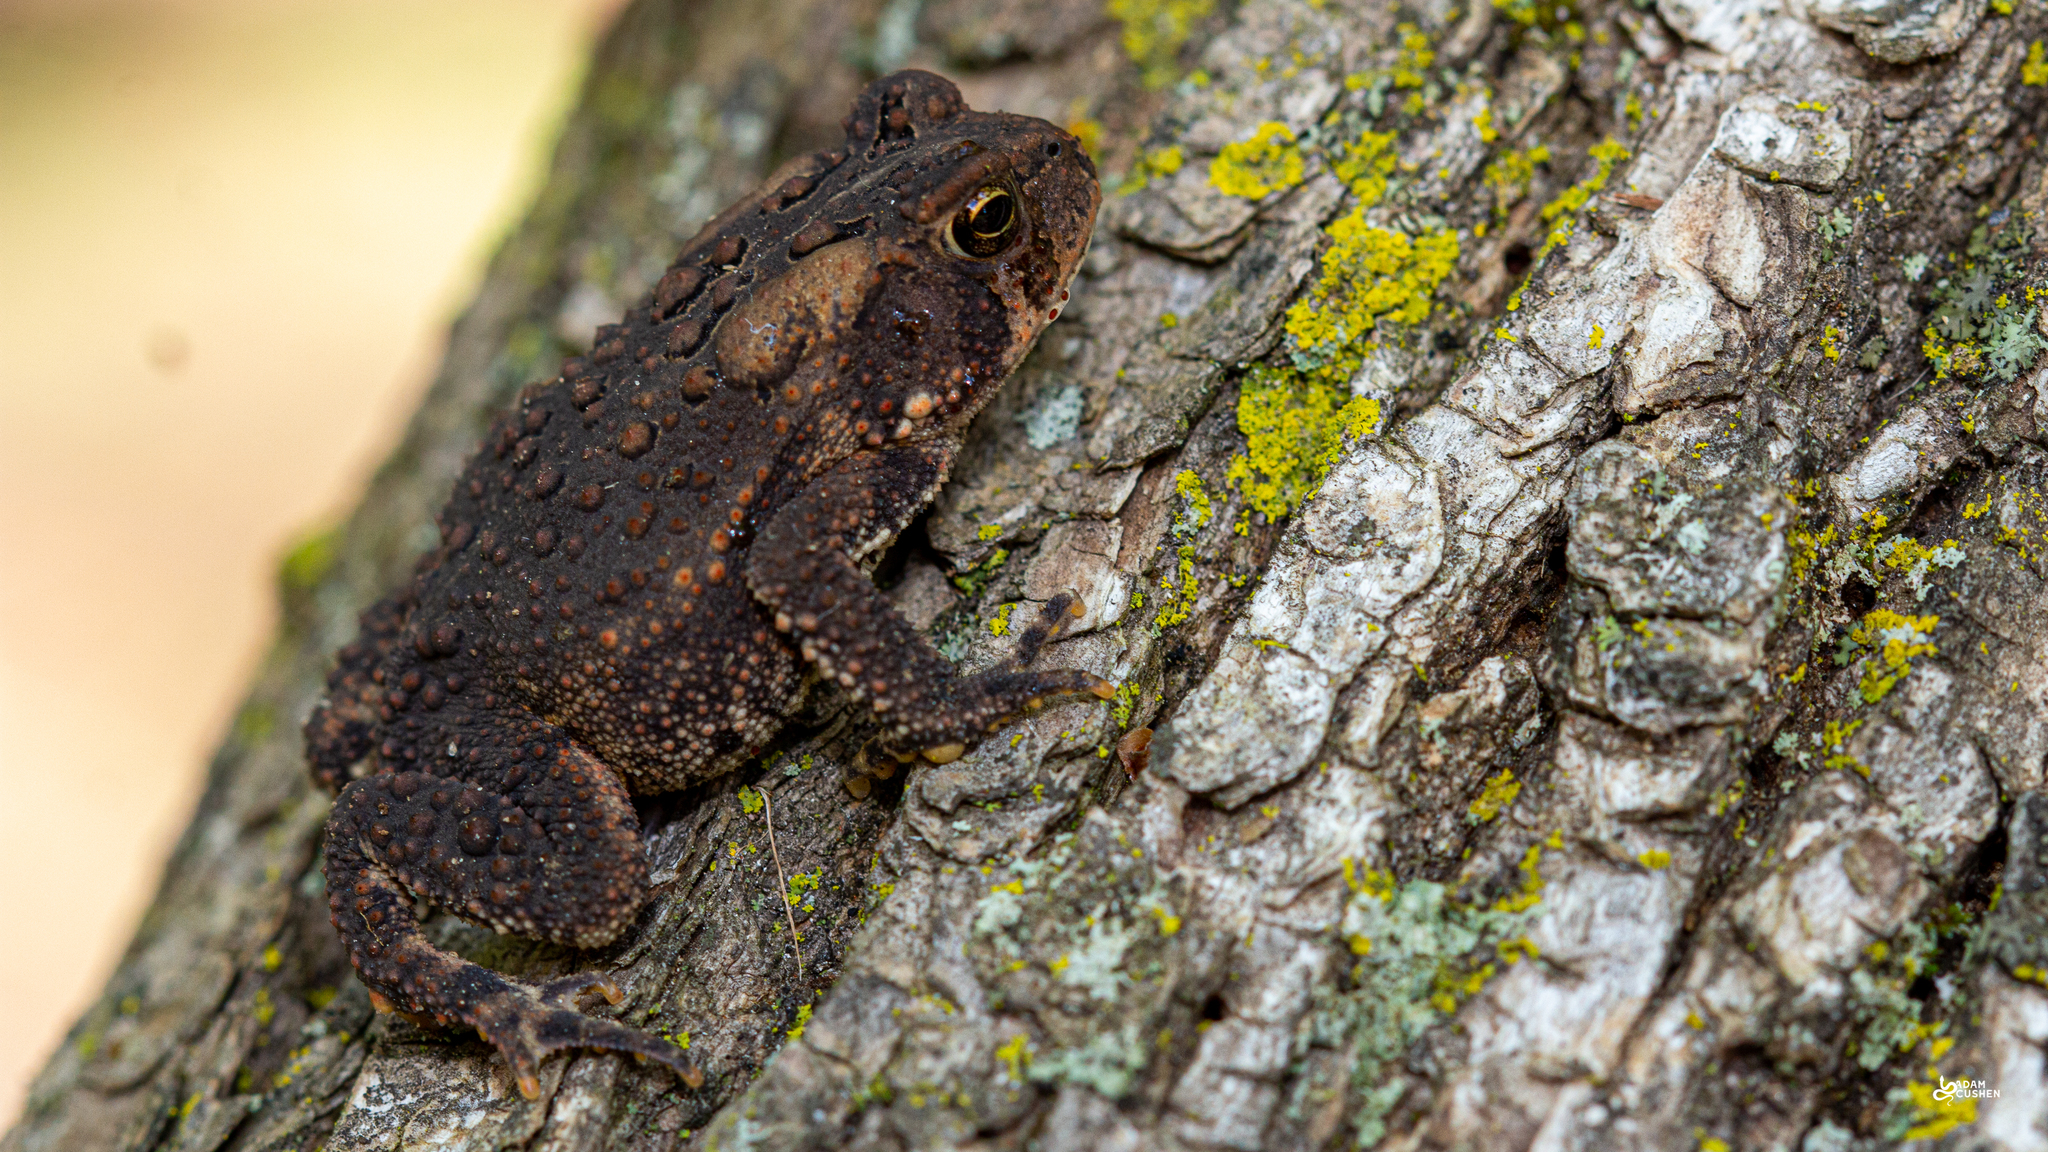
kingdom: Animalia
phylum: Chordata
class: Amphibia
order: Anura
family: Bufonidae
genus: Anaxyrus
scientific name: Anaxyrus americanus
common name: American toad
